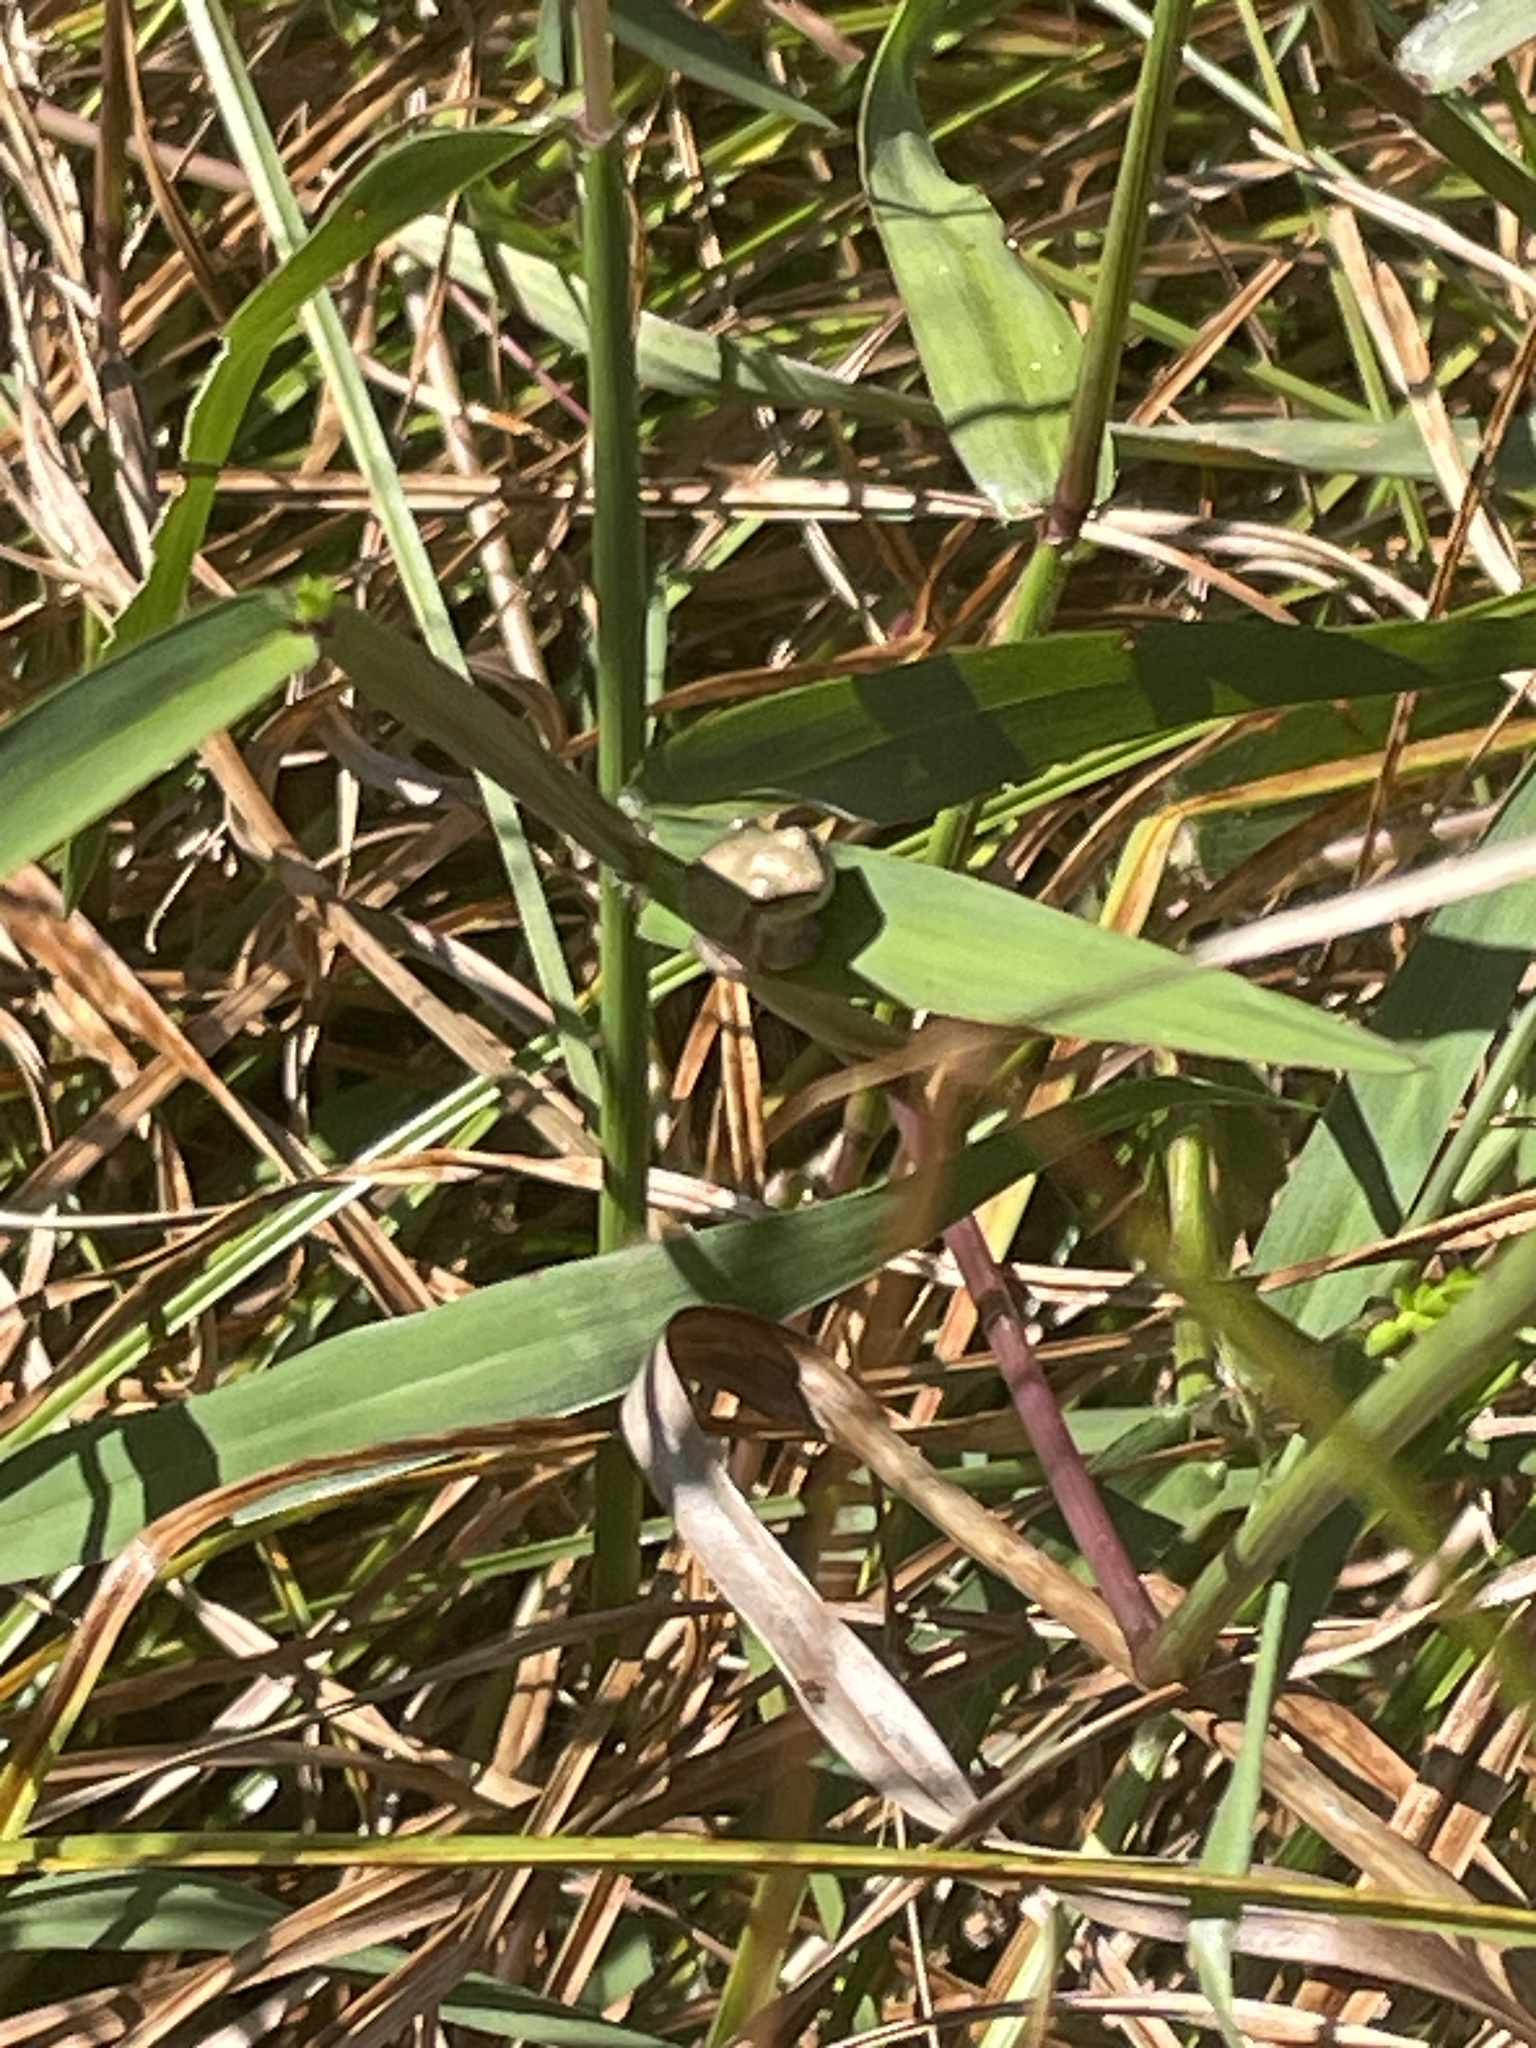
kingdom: Animalia
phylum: Chordata
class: Amphibia
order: Anura
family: Hylidae
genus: Dryophytes
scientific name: Dryophytes cinereus
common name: Green treefrog
